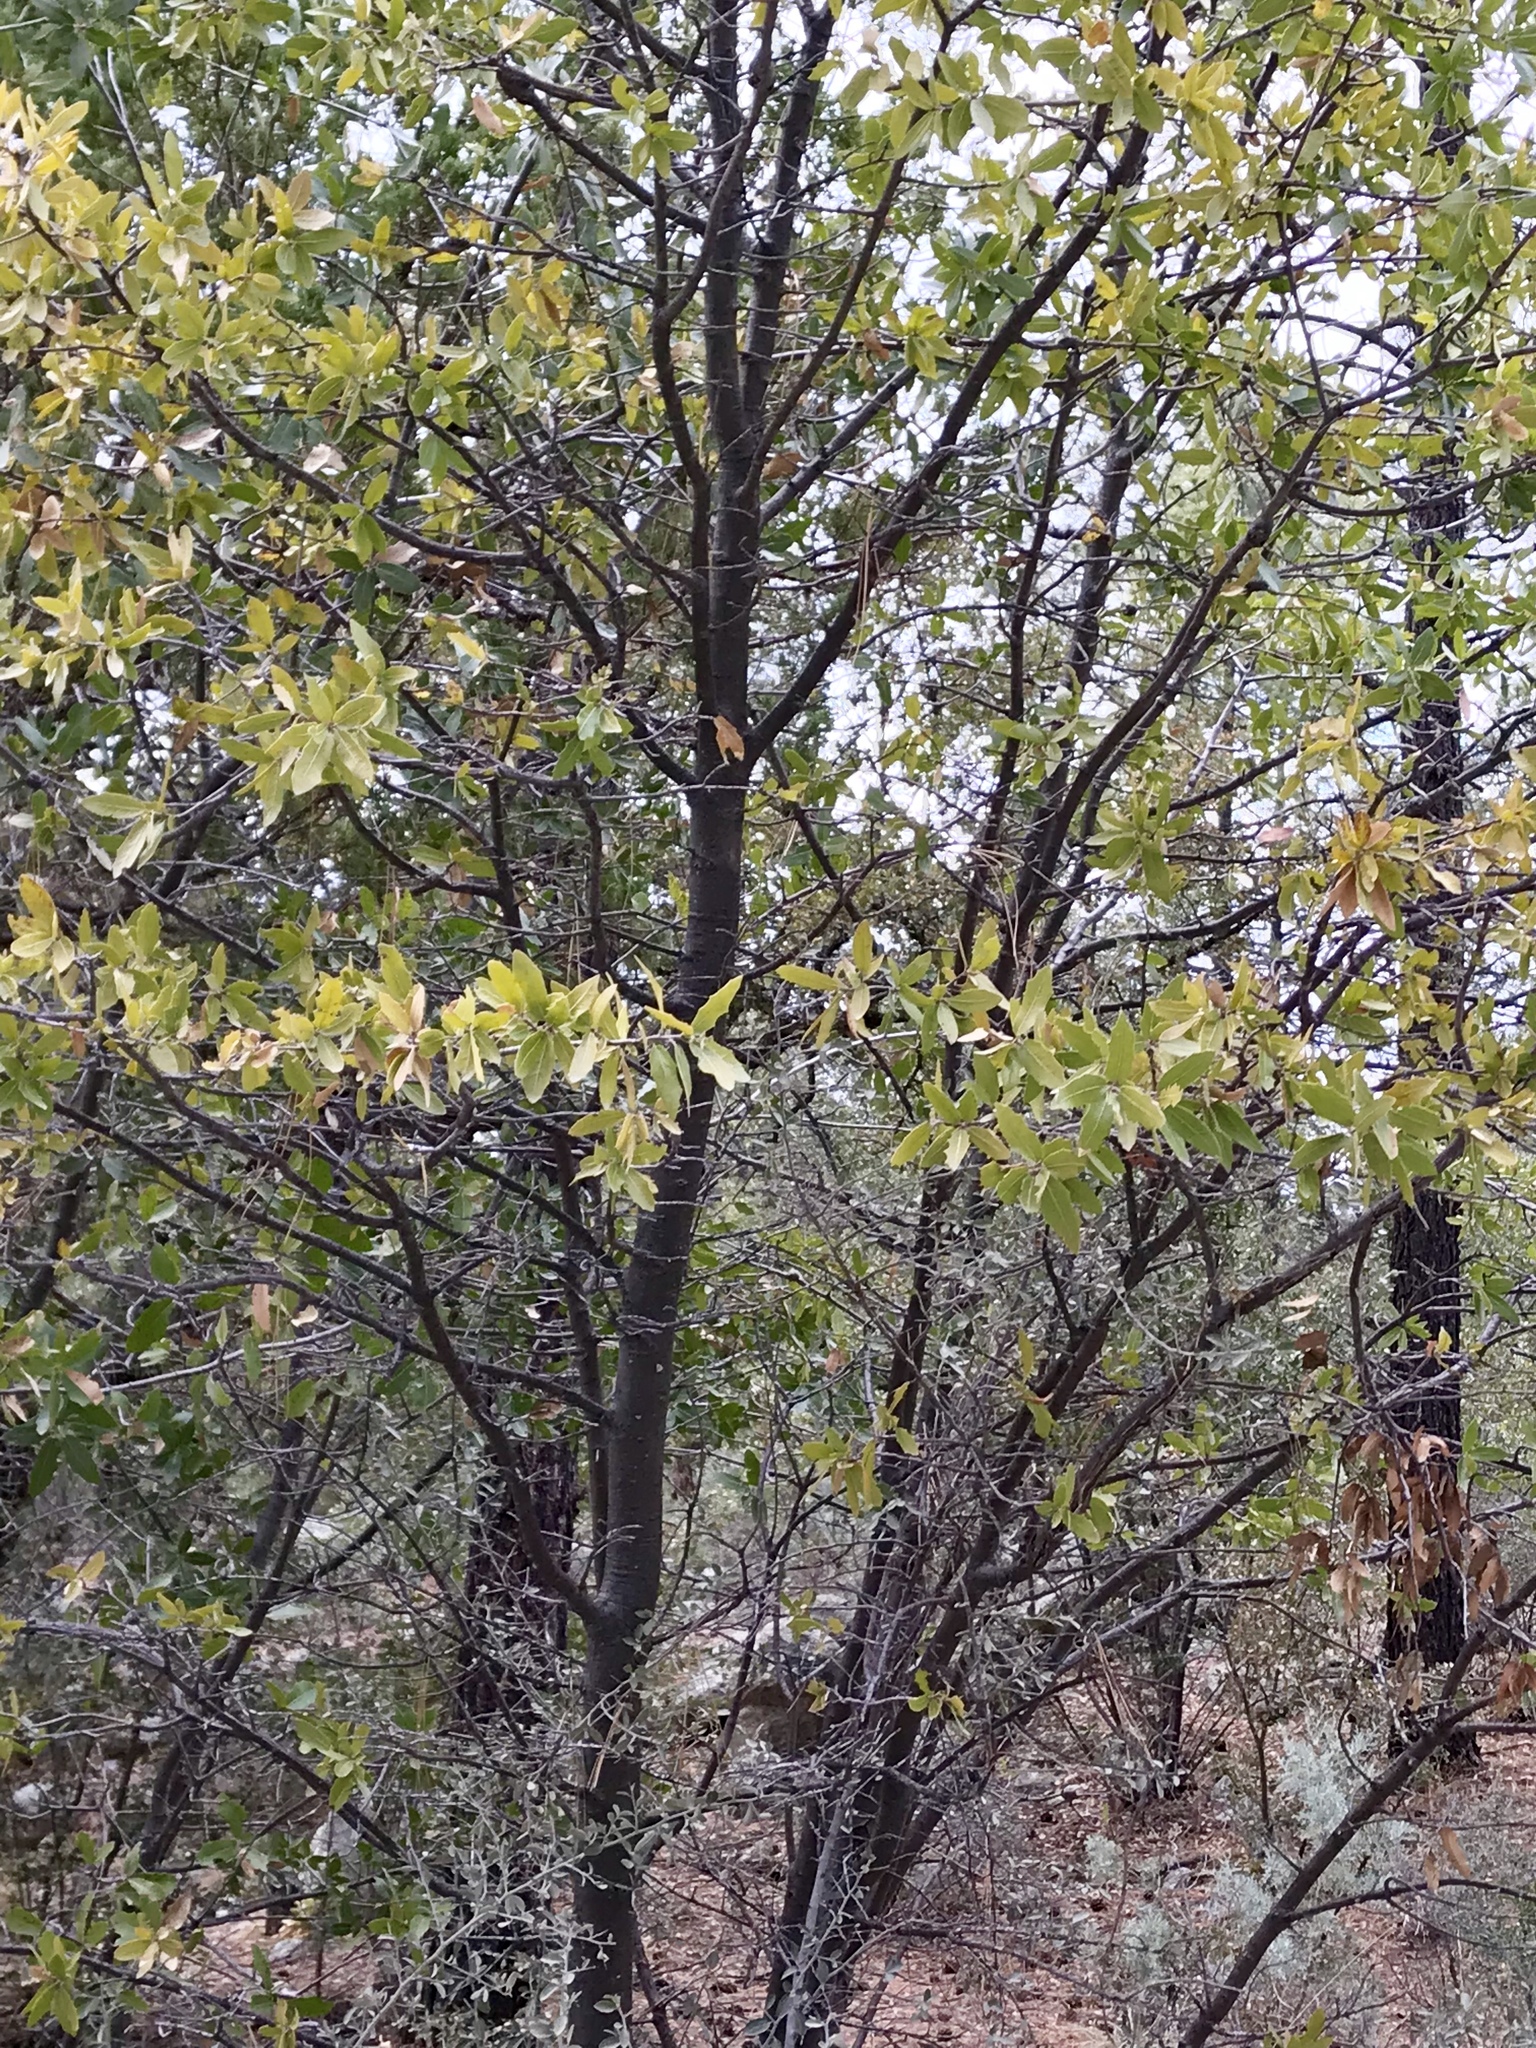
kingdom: Plantae
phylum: Tracheophyta
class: Magnoliopsida
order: Fagales
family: Fagaceae
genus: Quercus
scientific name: Quercus emoryi
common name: Emory oak
